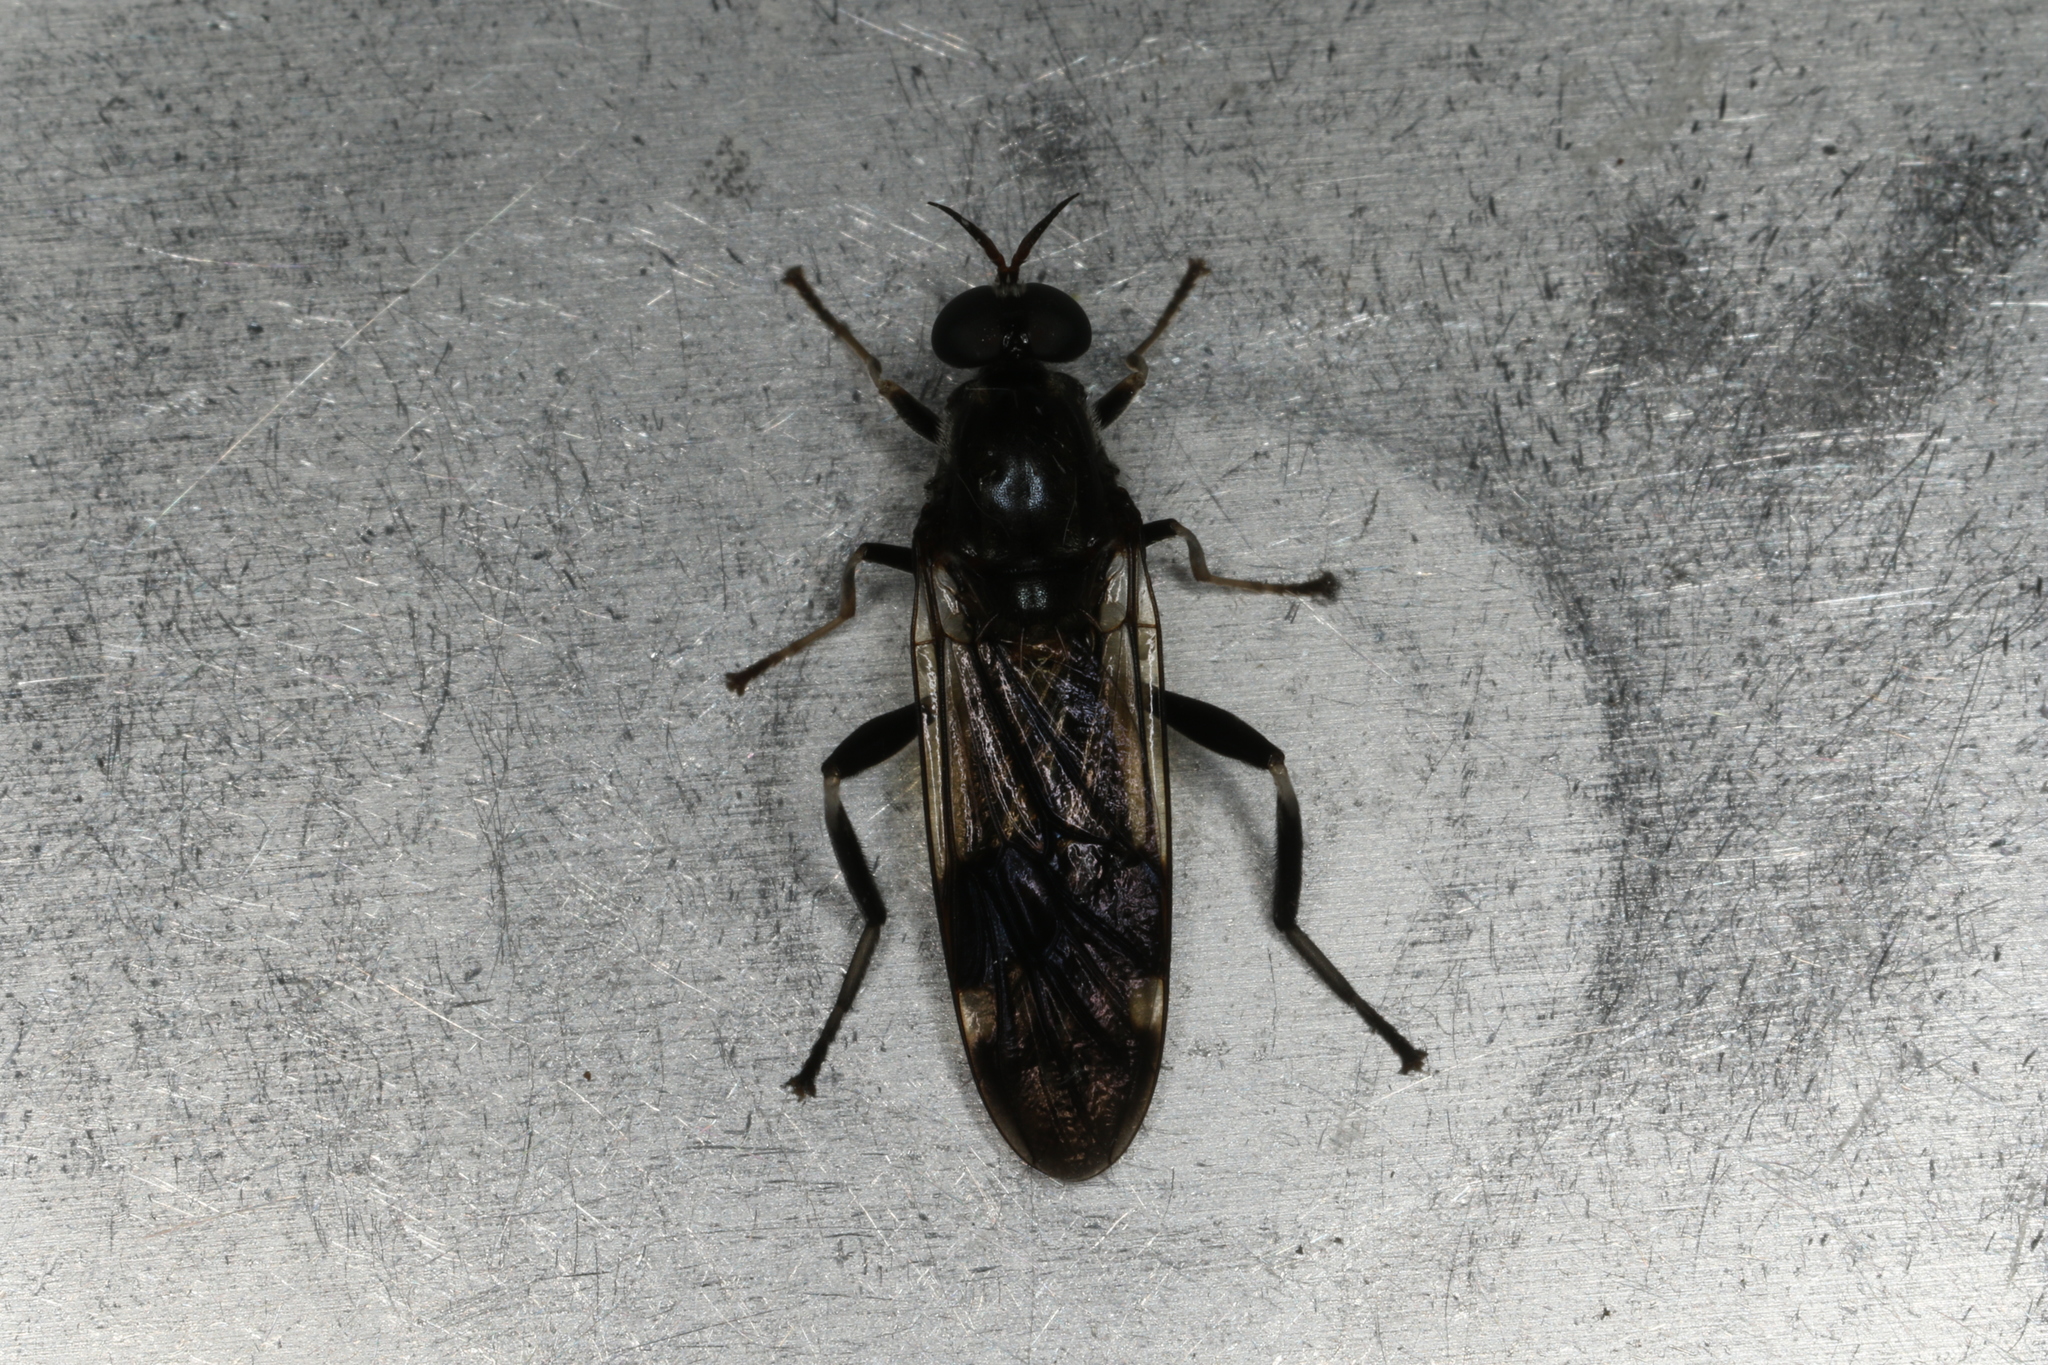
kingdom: Animalia
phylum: Arthropoda
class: Insecta
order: Diptera
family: Stratiomyidae
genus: Exaireta
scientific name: Exaireta spinigera
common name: Blue soldier fly
